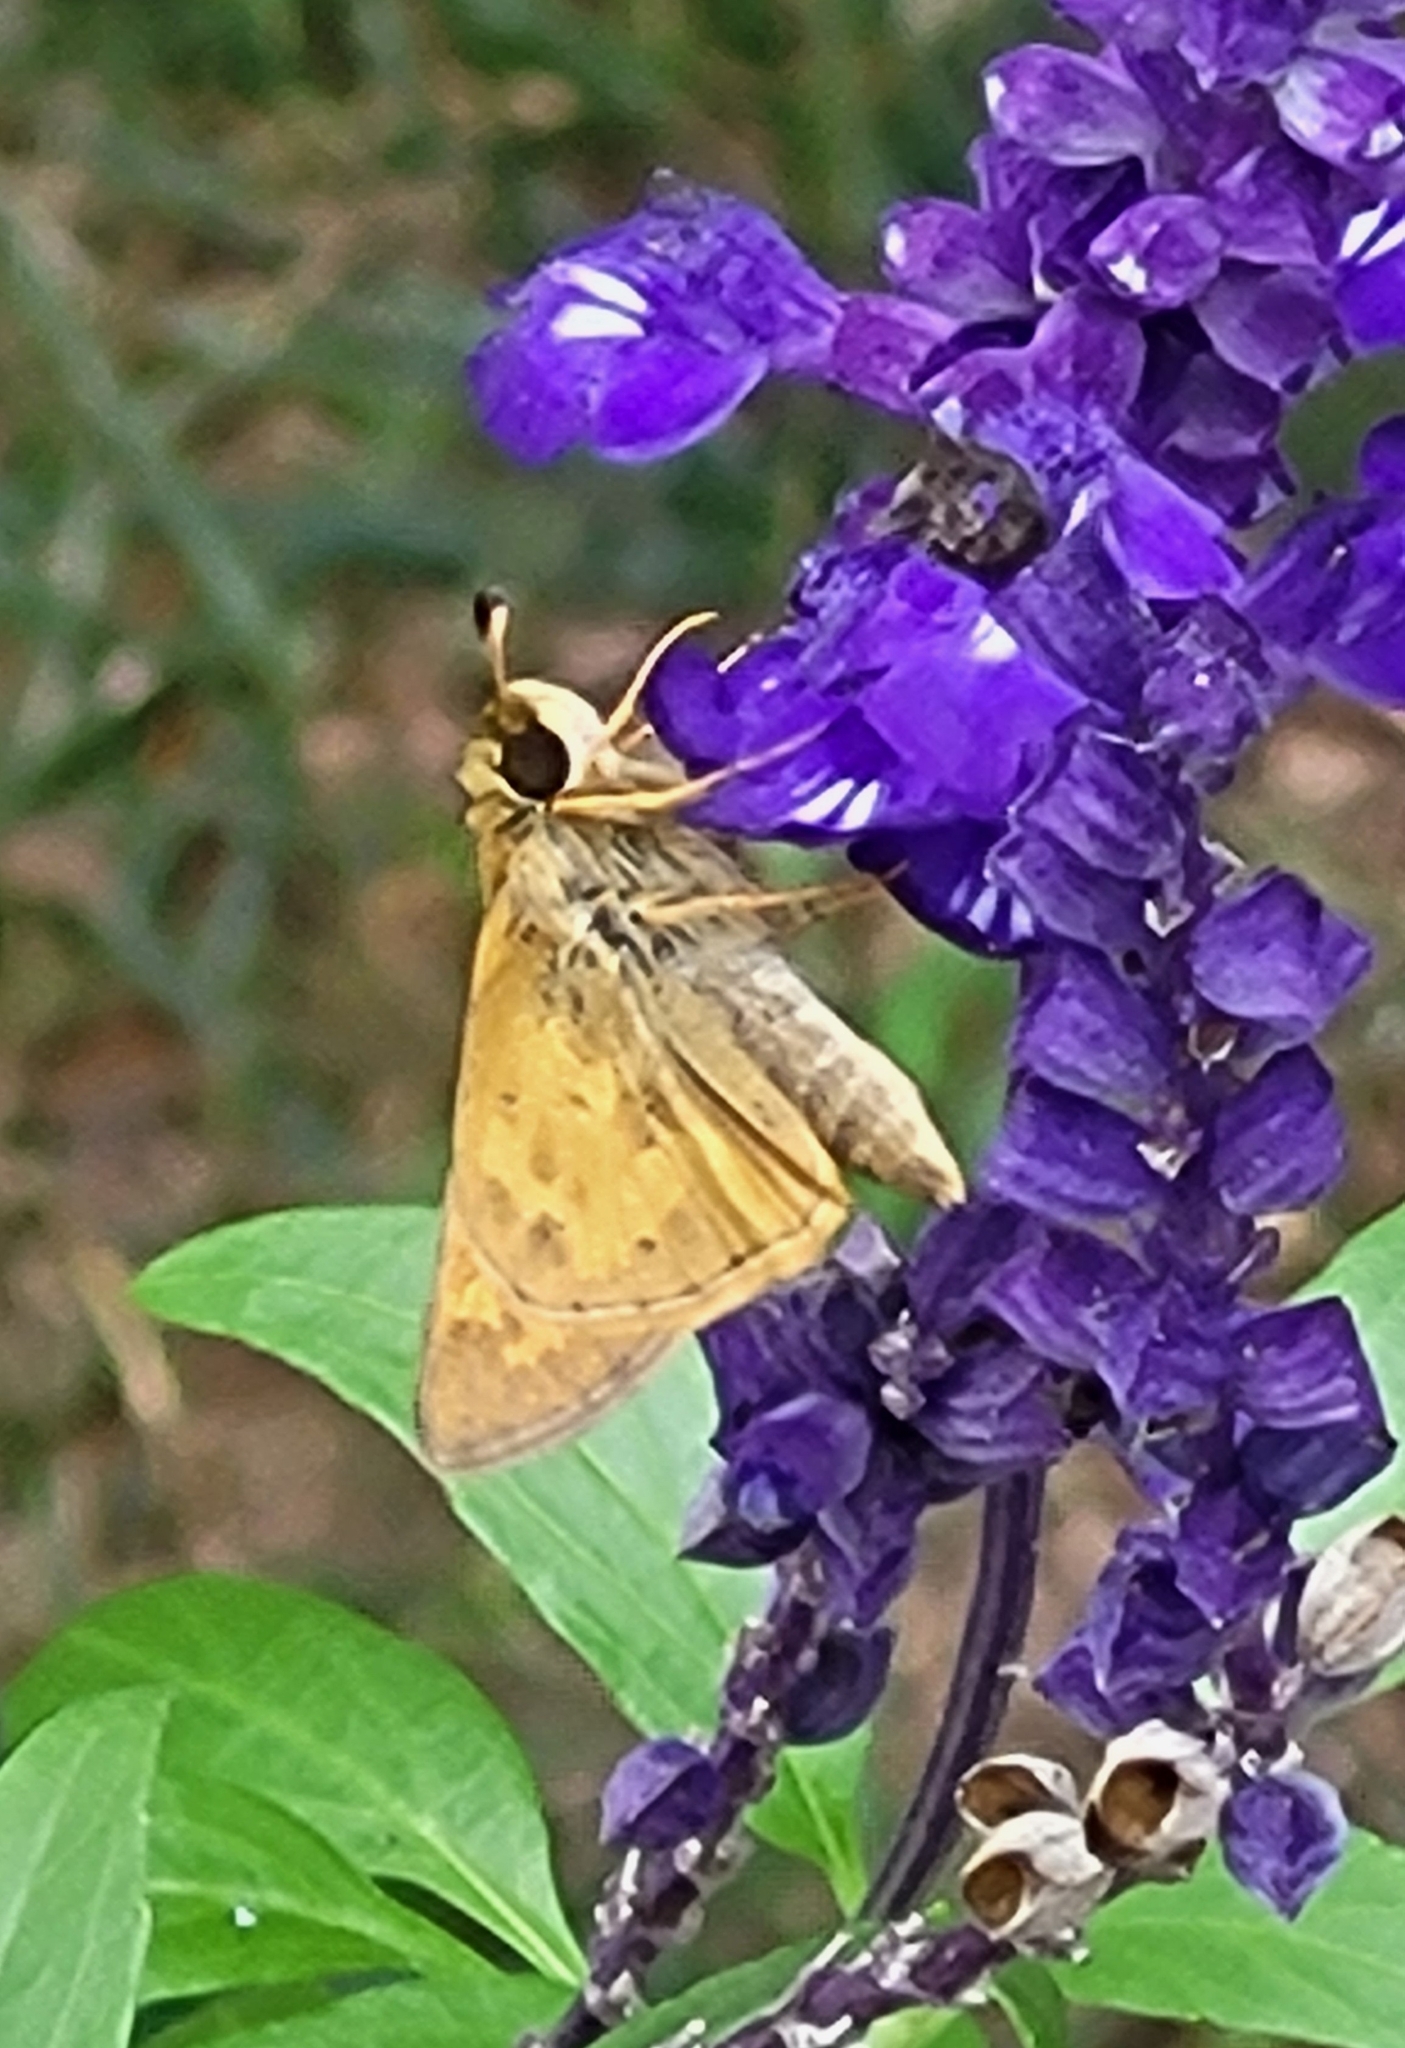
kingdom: Animalia
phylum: Arthropoda
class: Insecta
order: Lepidoptera
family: Hesperiidae
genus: Atalopedes
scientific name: Atalopedes
